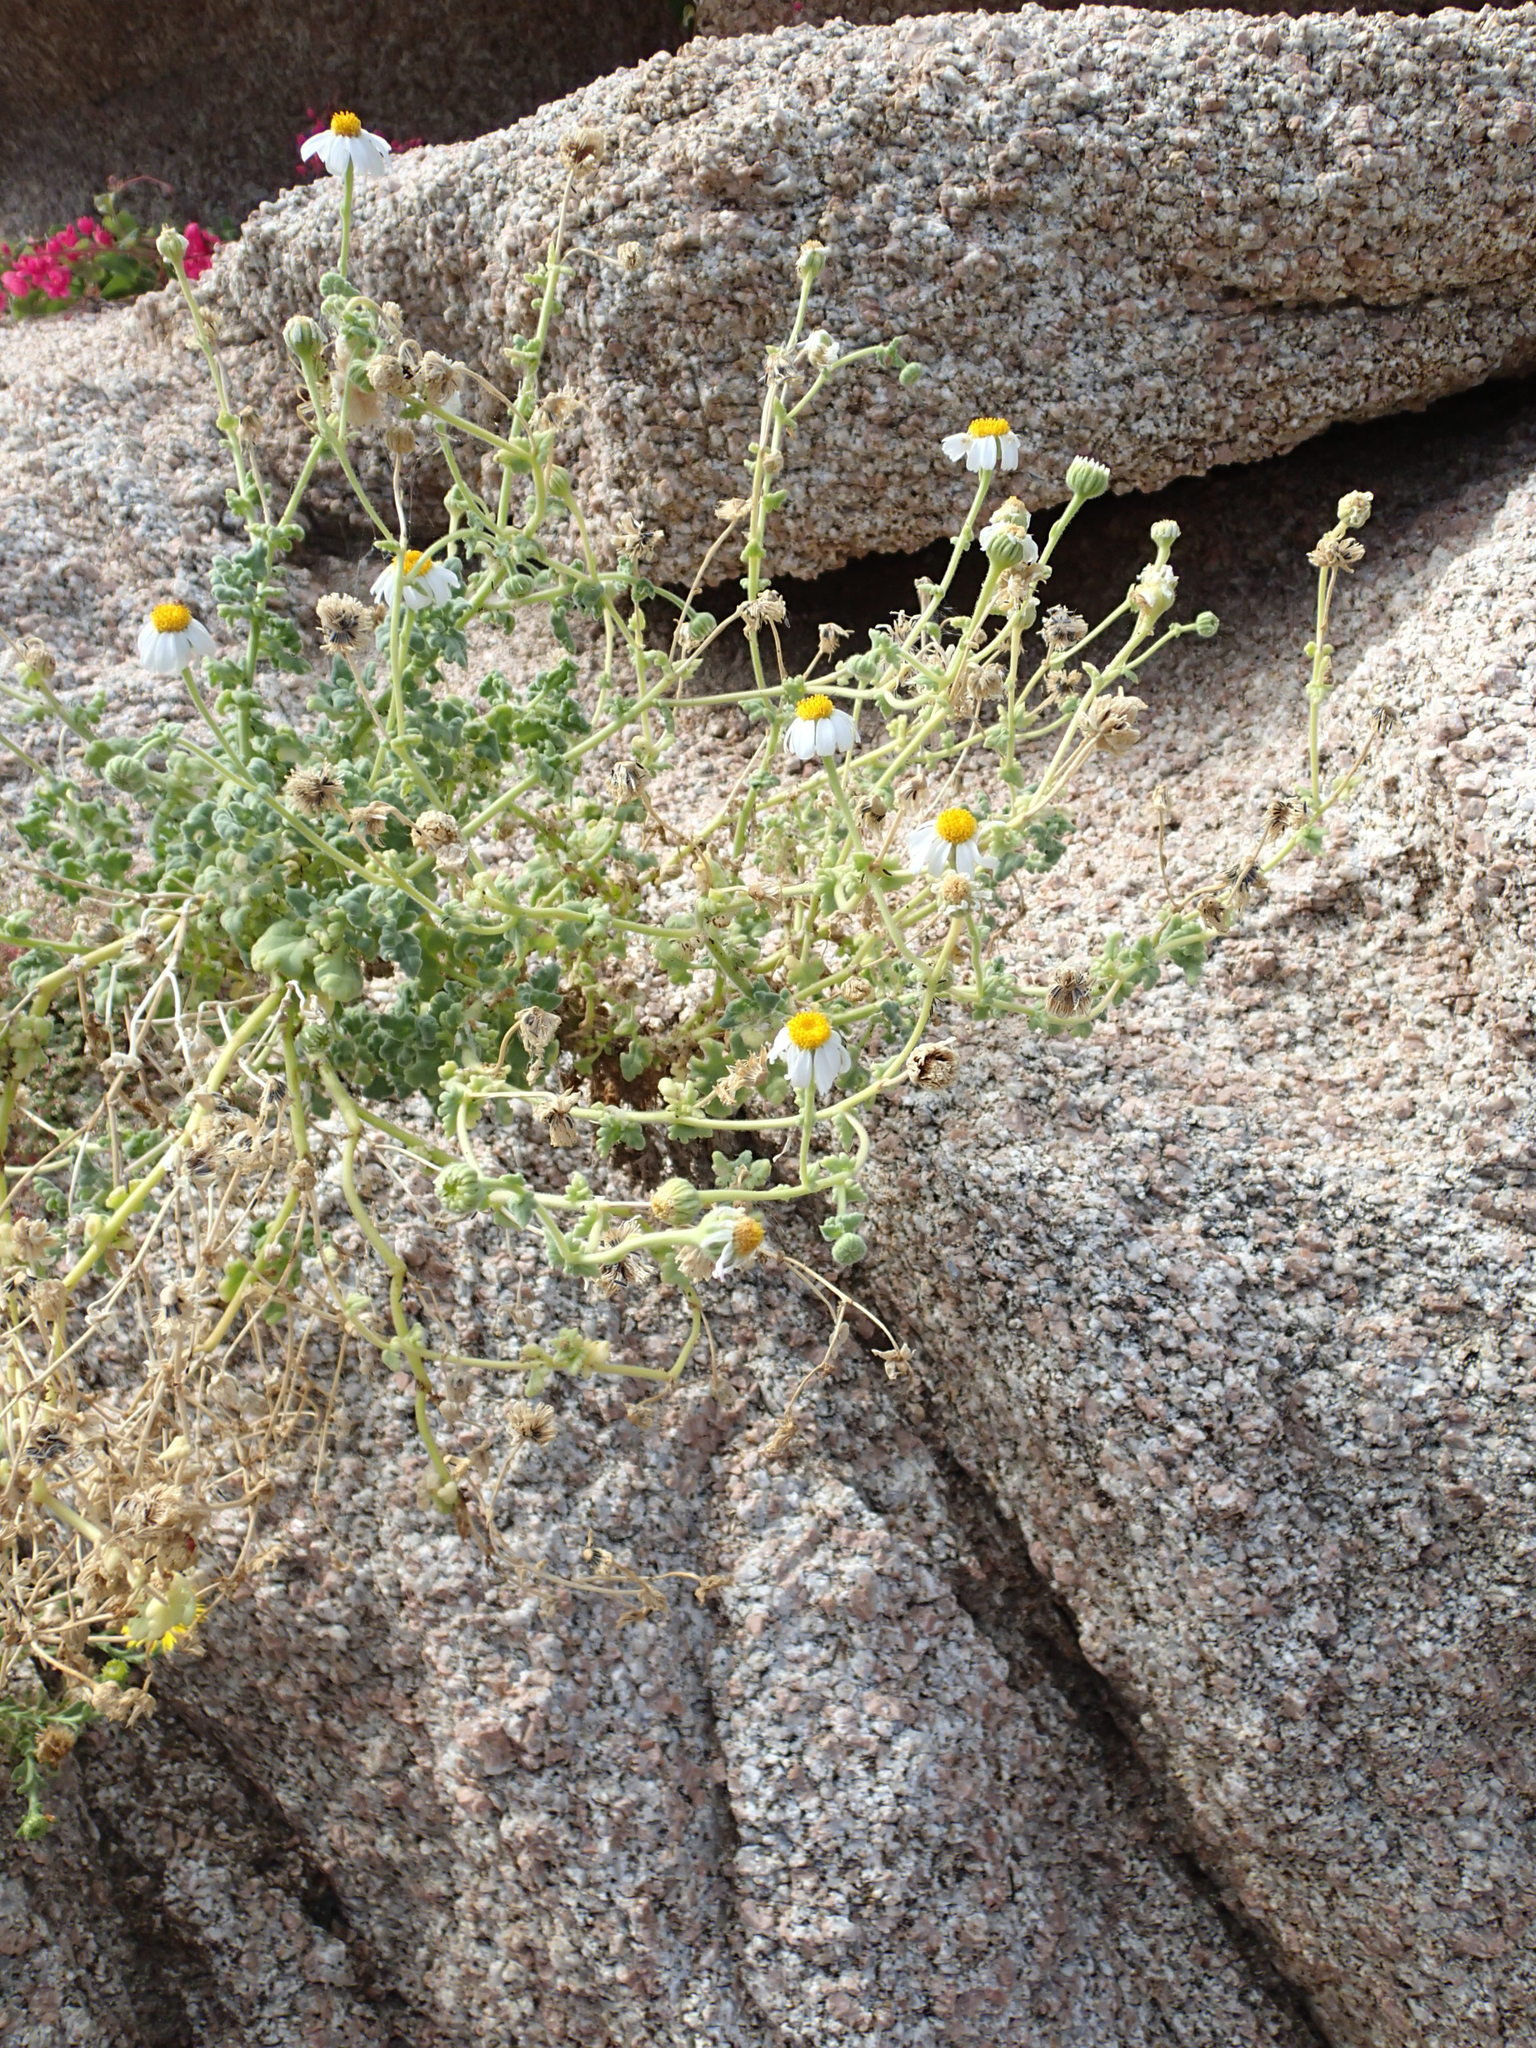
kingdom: Plantae
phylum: Tracheophyta
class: Magnoliopsida
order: Asterales
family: Asteraceae
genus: Perityle
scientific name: Perityle crassifolia
